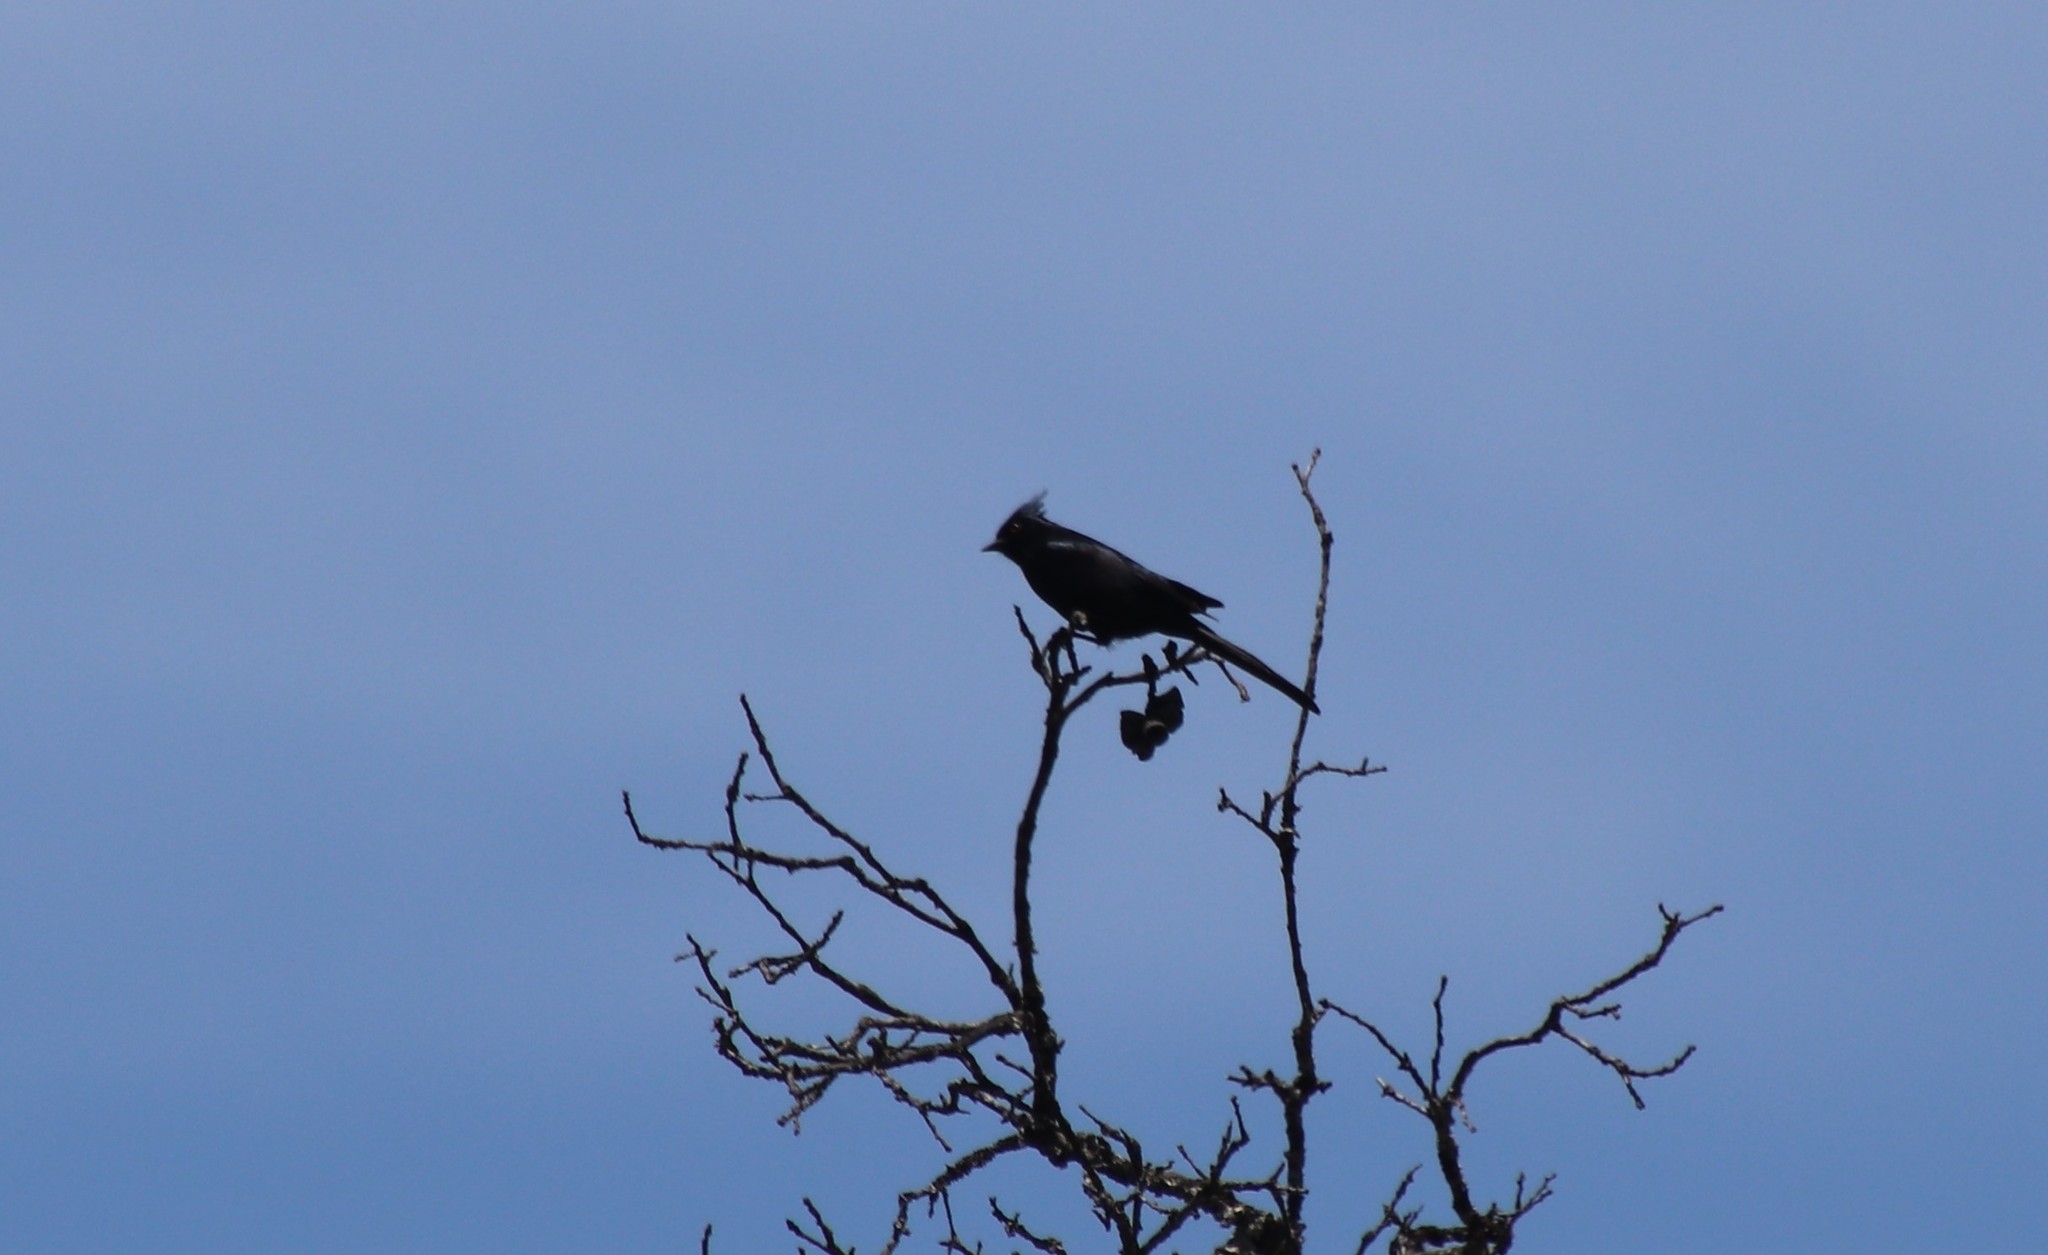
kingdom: Animalia
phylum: Chordata
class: Aves
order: Passeriformes
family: Ptilogonatidae
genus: Phainopepla
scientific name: Phainopepla nitens
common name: Phainopepla
